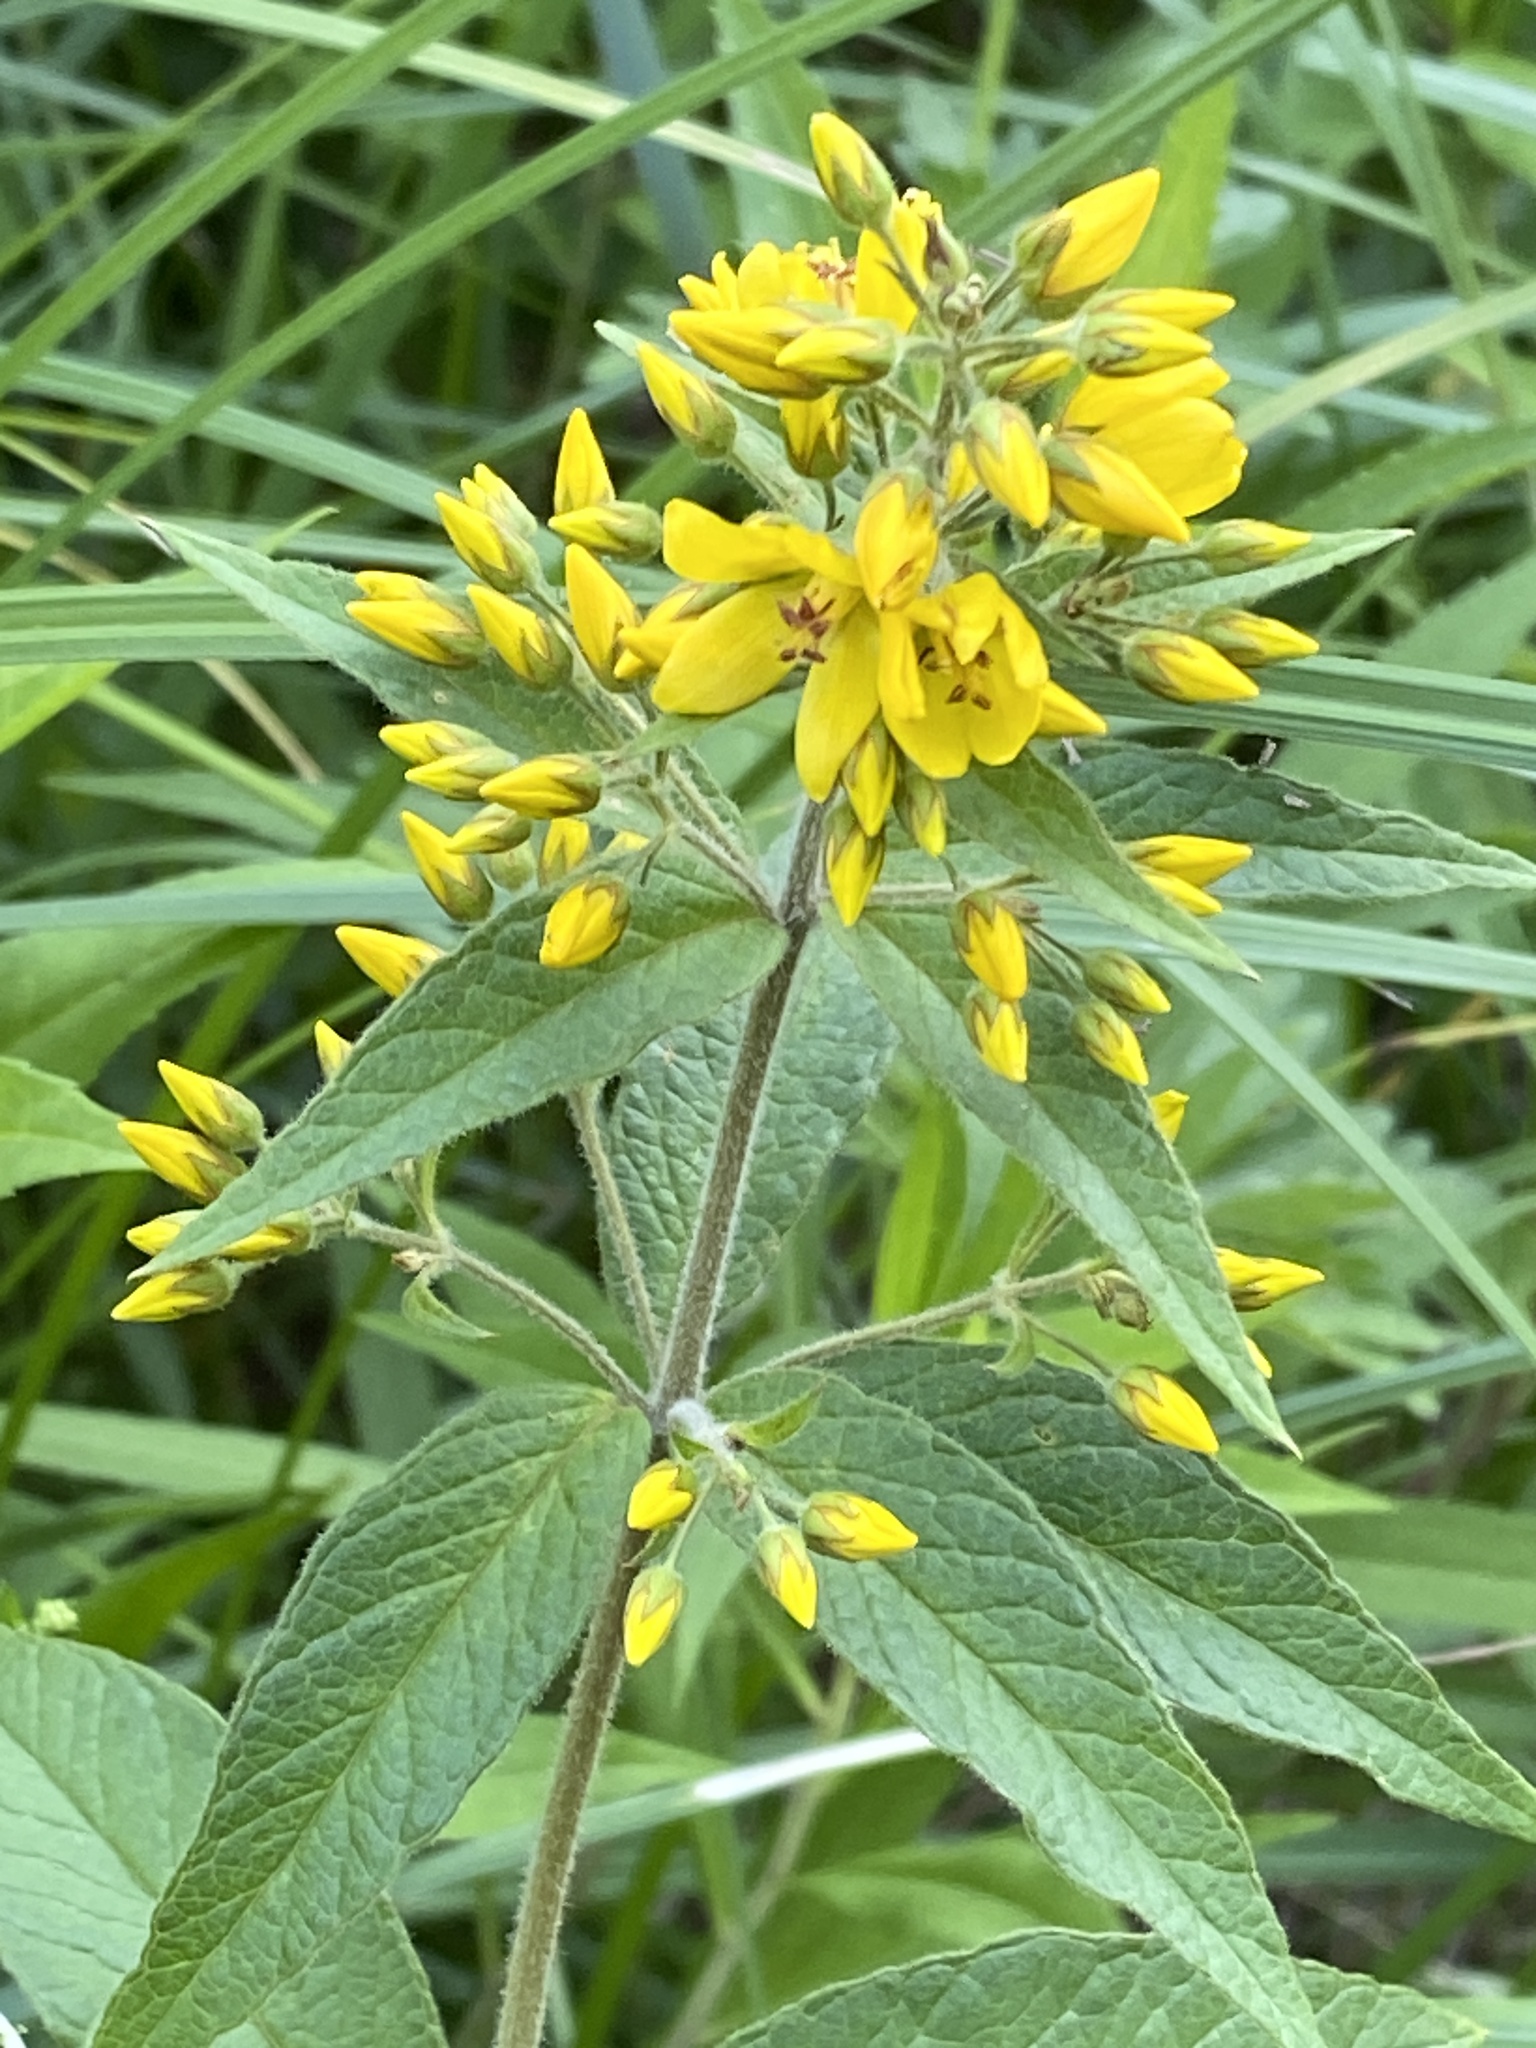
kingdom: Plantae
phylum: Tracheophyta
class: Magnoliopsida
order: Ericales
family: Primulaceae
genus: Lysimachia
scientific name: Lysimachia vulgaris
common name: Yellow loosestrife
